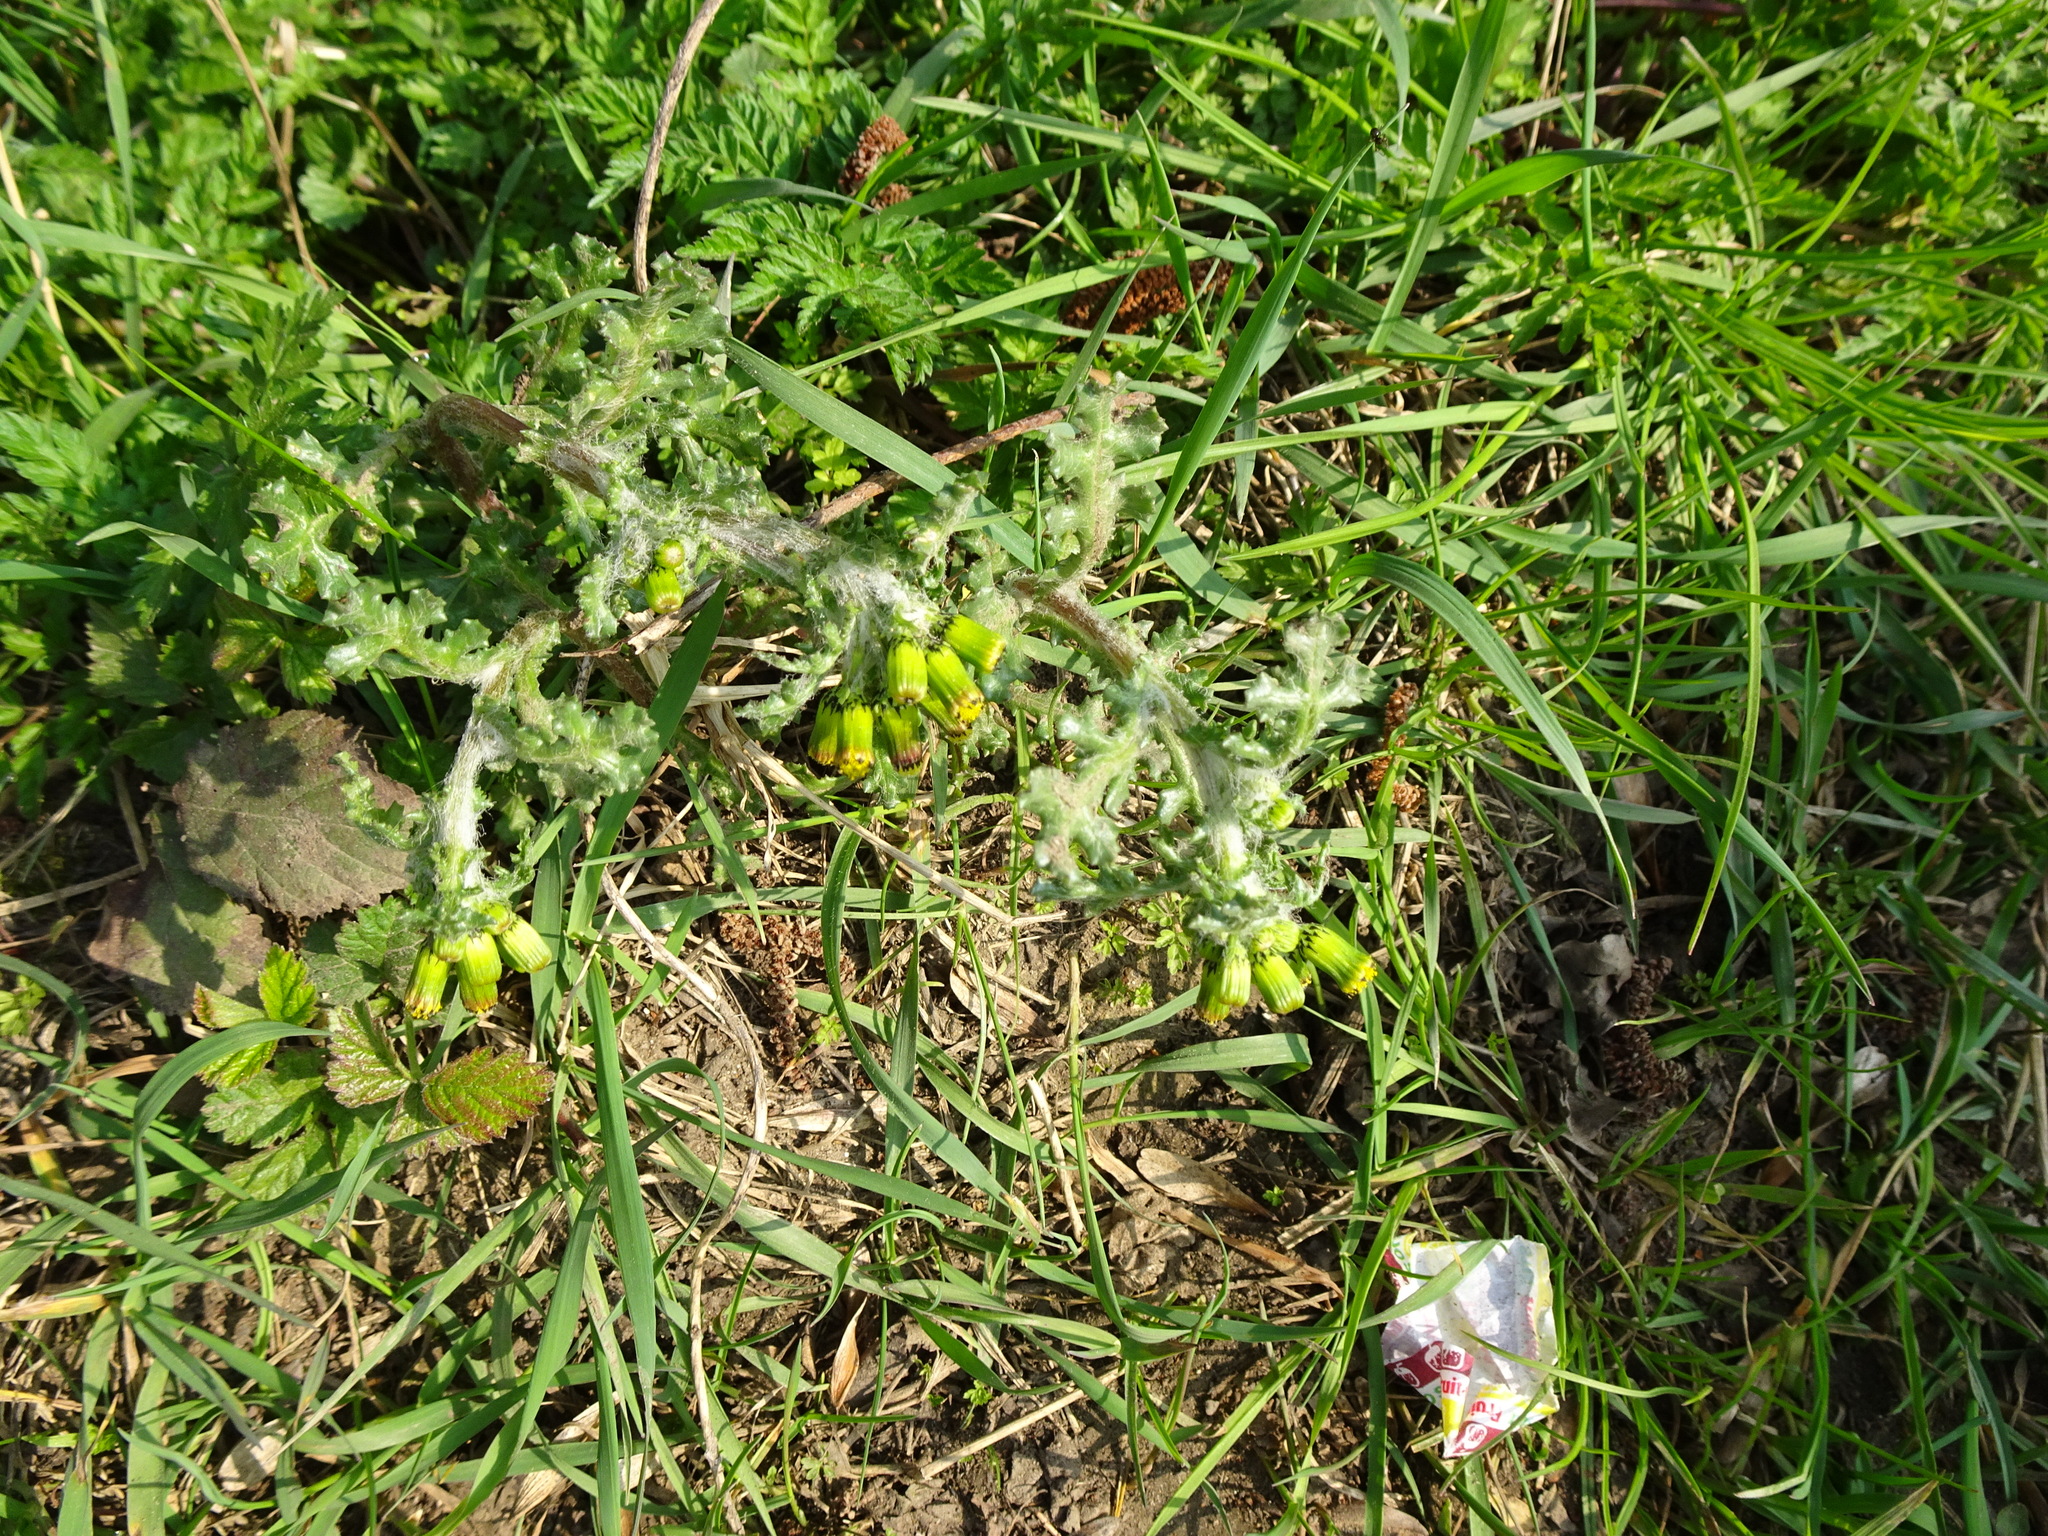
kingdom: Plantae
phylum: Tracheophyta
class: Magnoliopsida
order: Asterales
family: Asteraceae
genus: Senecio
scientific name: Senecio vulgaris
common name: Old-man-in-the-spring
